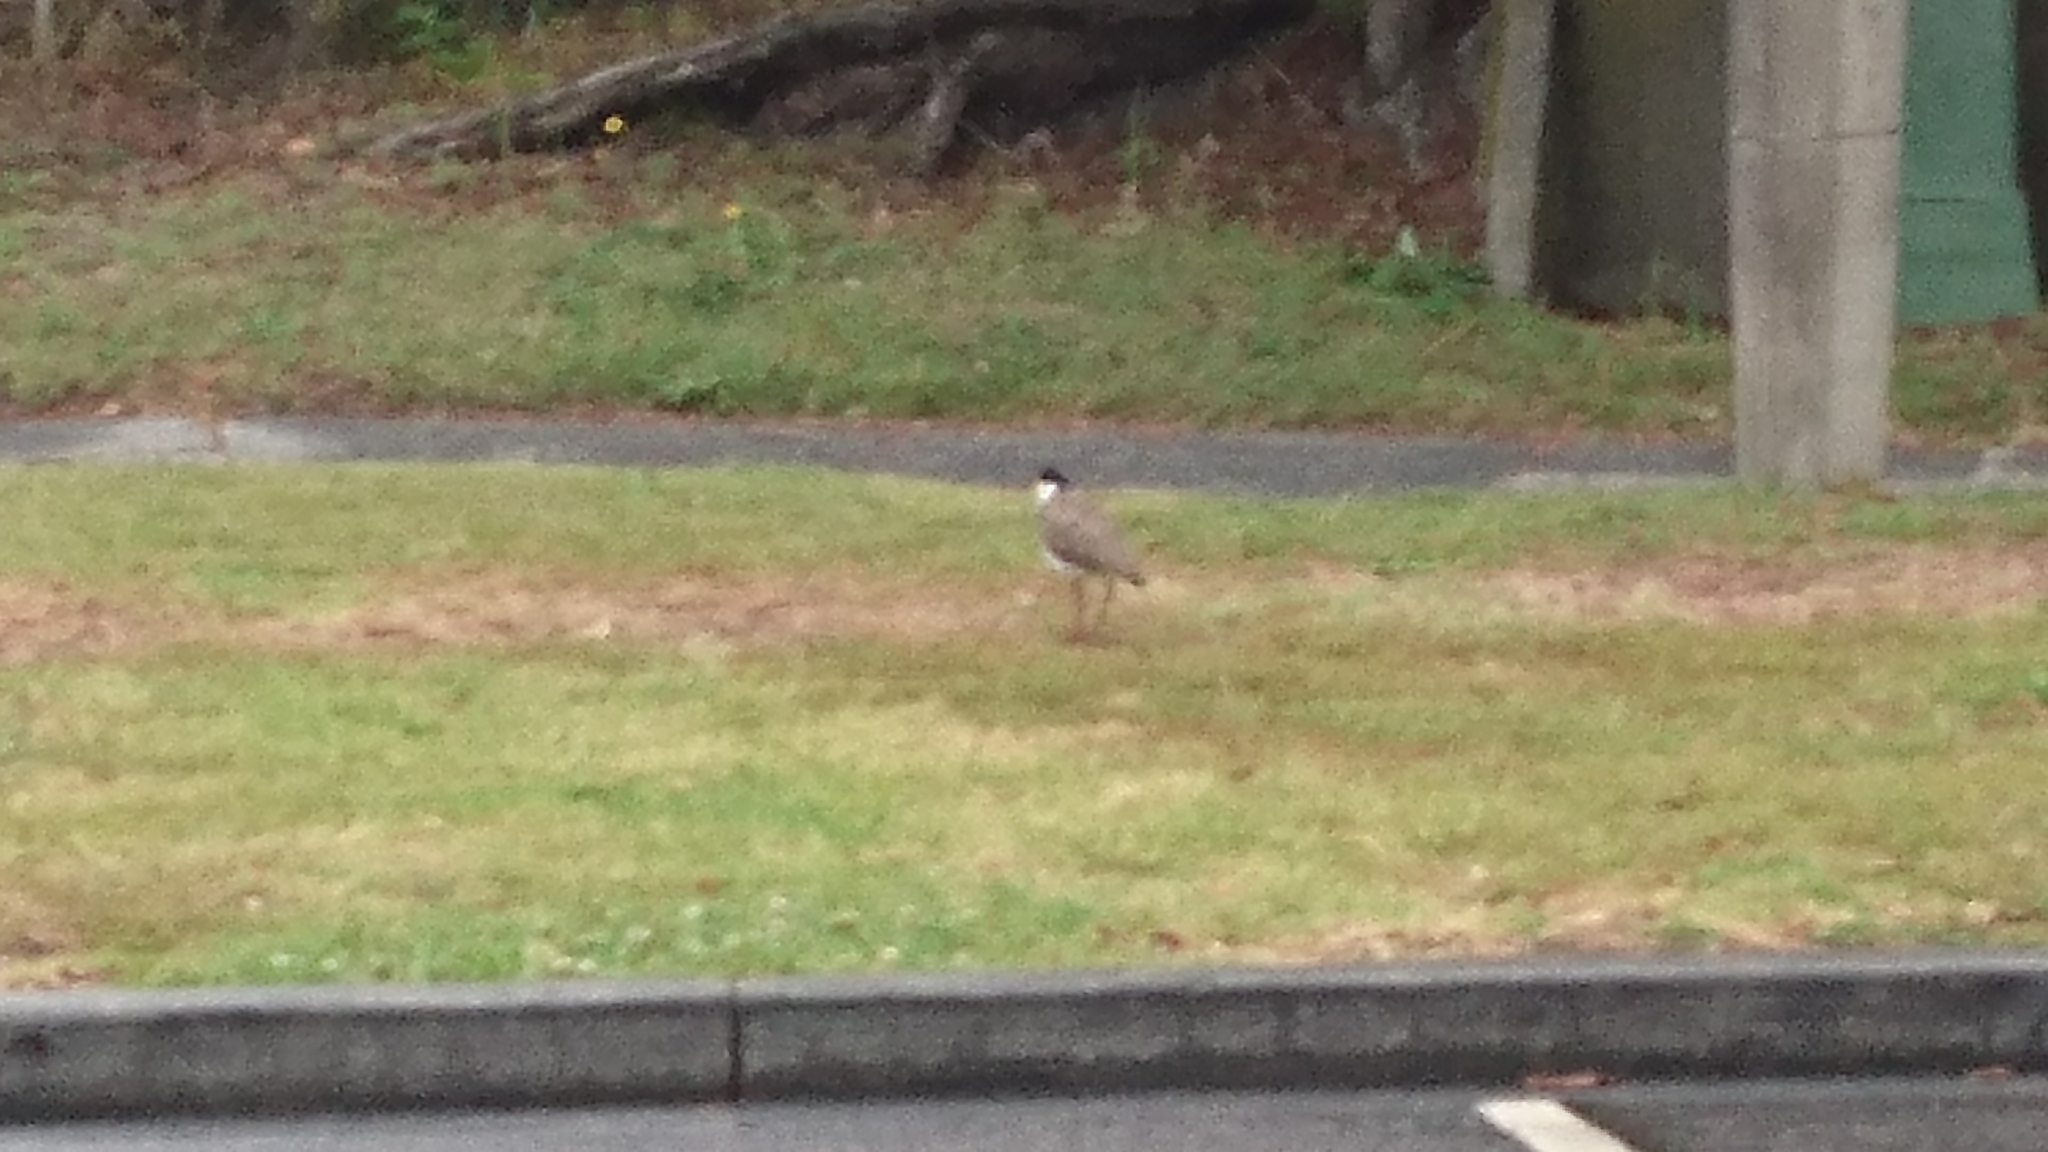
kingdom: Animalia
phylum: Chordata
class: Aves
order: Charadriiformes
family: Charadriidae
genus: Vanellus
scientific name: Vanellus miles
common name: Masked lapwing
